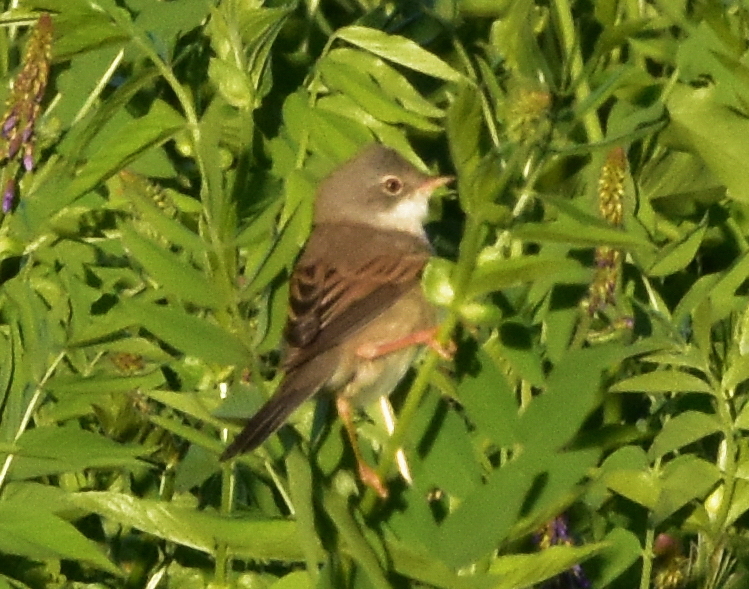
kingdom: Animalia
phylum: Chordata
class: Aves
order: Passeriformes
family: Sylviidae
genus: Sylvia
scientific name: Sylvia communis
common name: Common whitethroat
